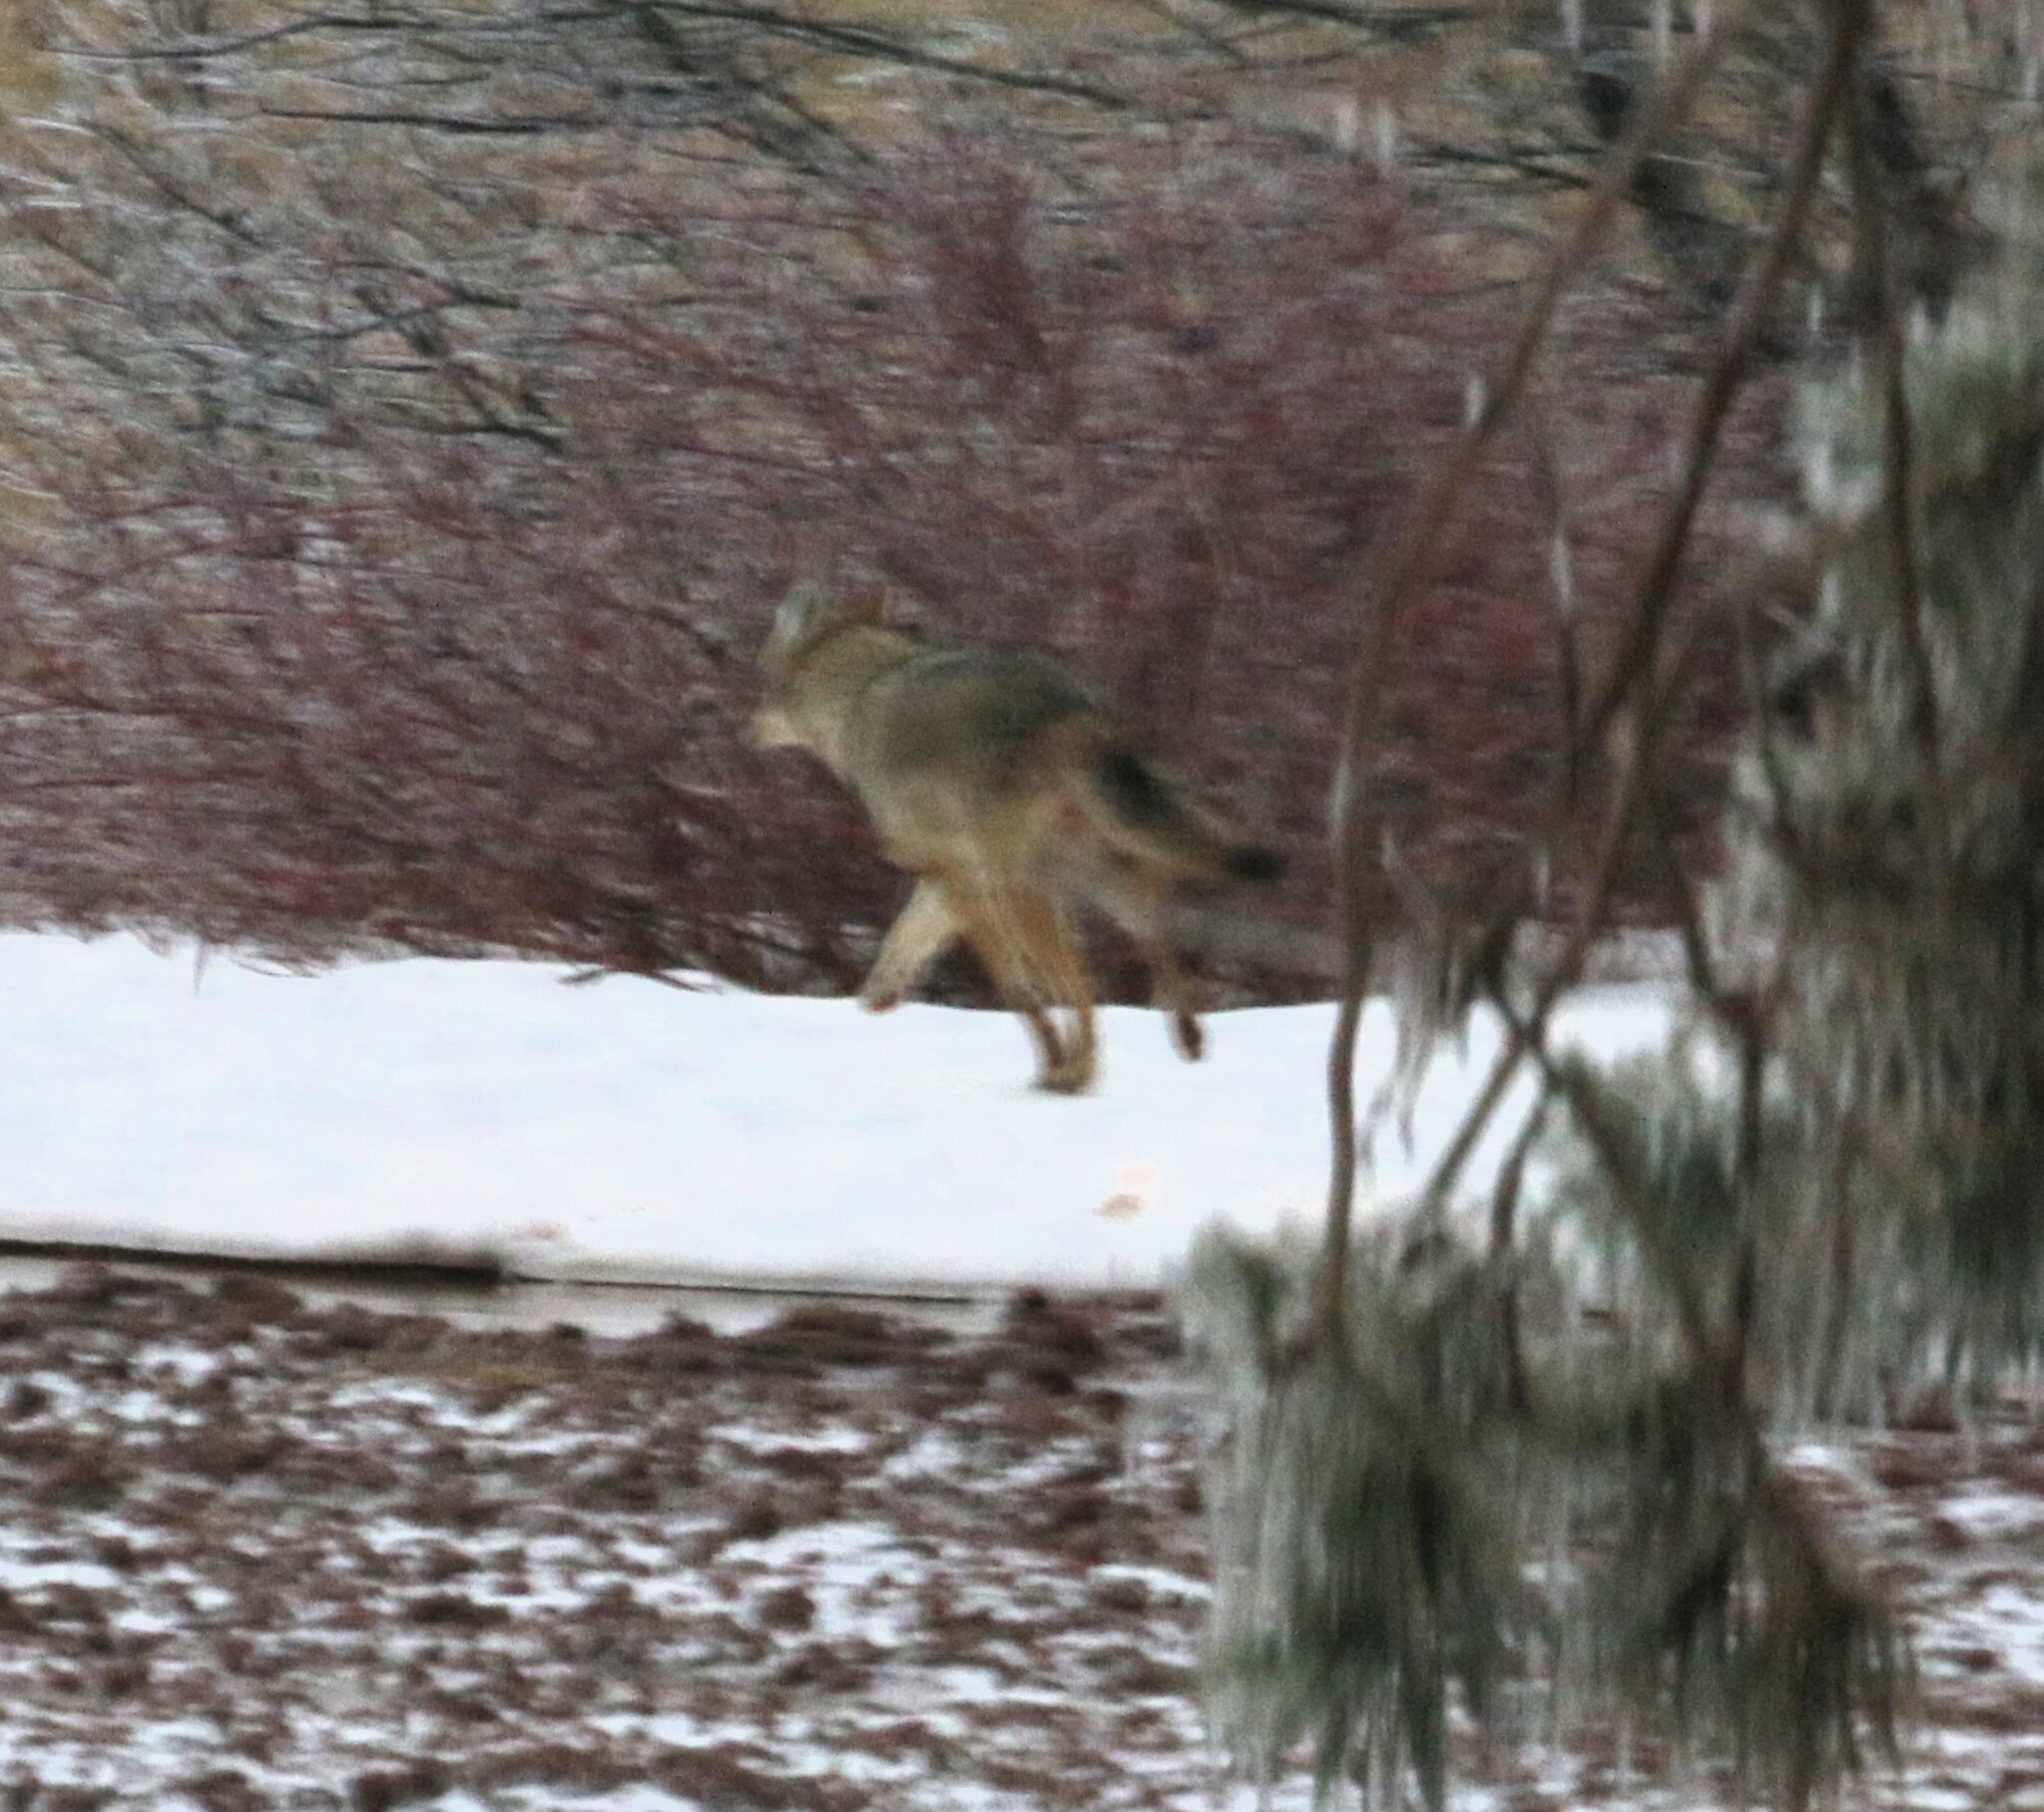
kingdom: Animalia
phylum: Chordata
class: Mammalia
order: Carnivora
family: Canidae
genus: Canis
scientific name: Canis latrans
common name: Coyote
